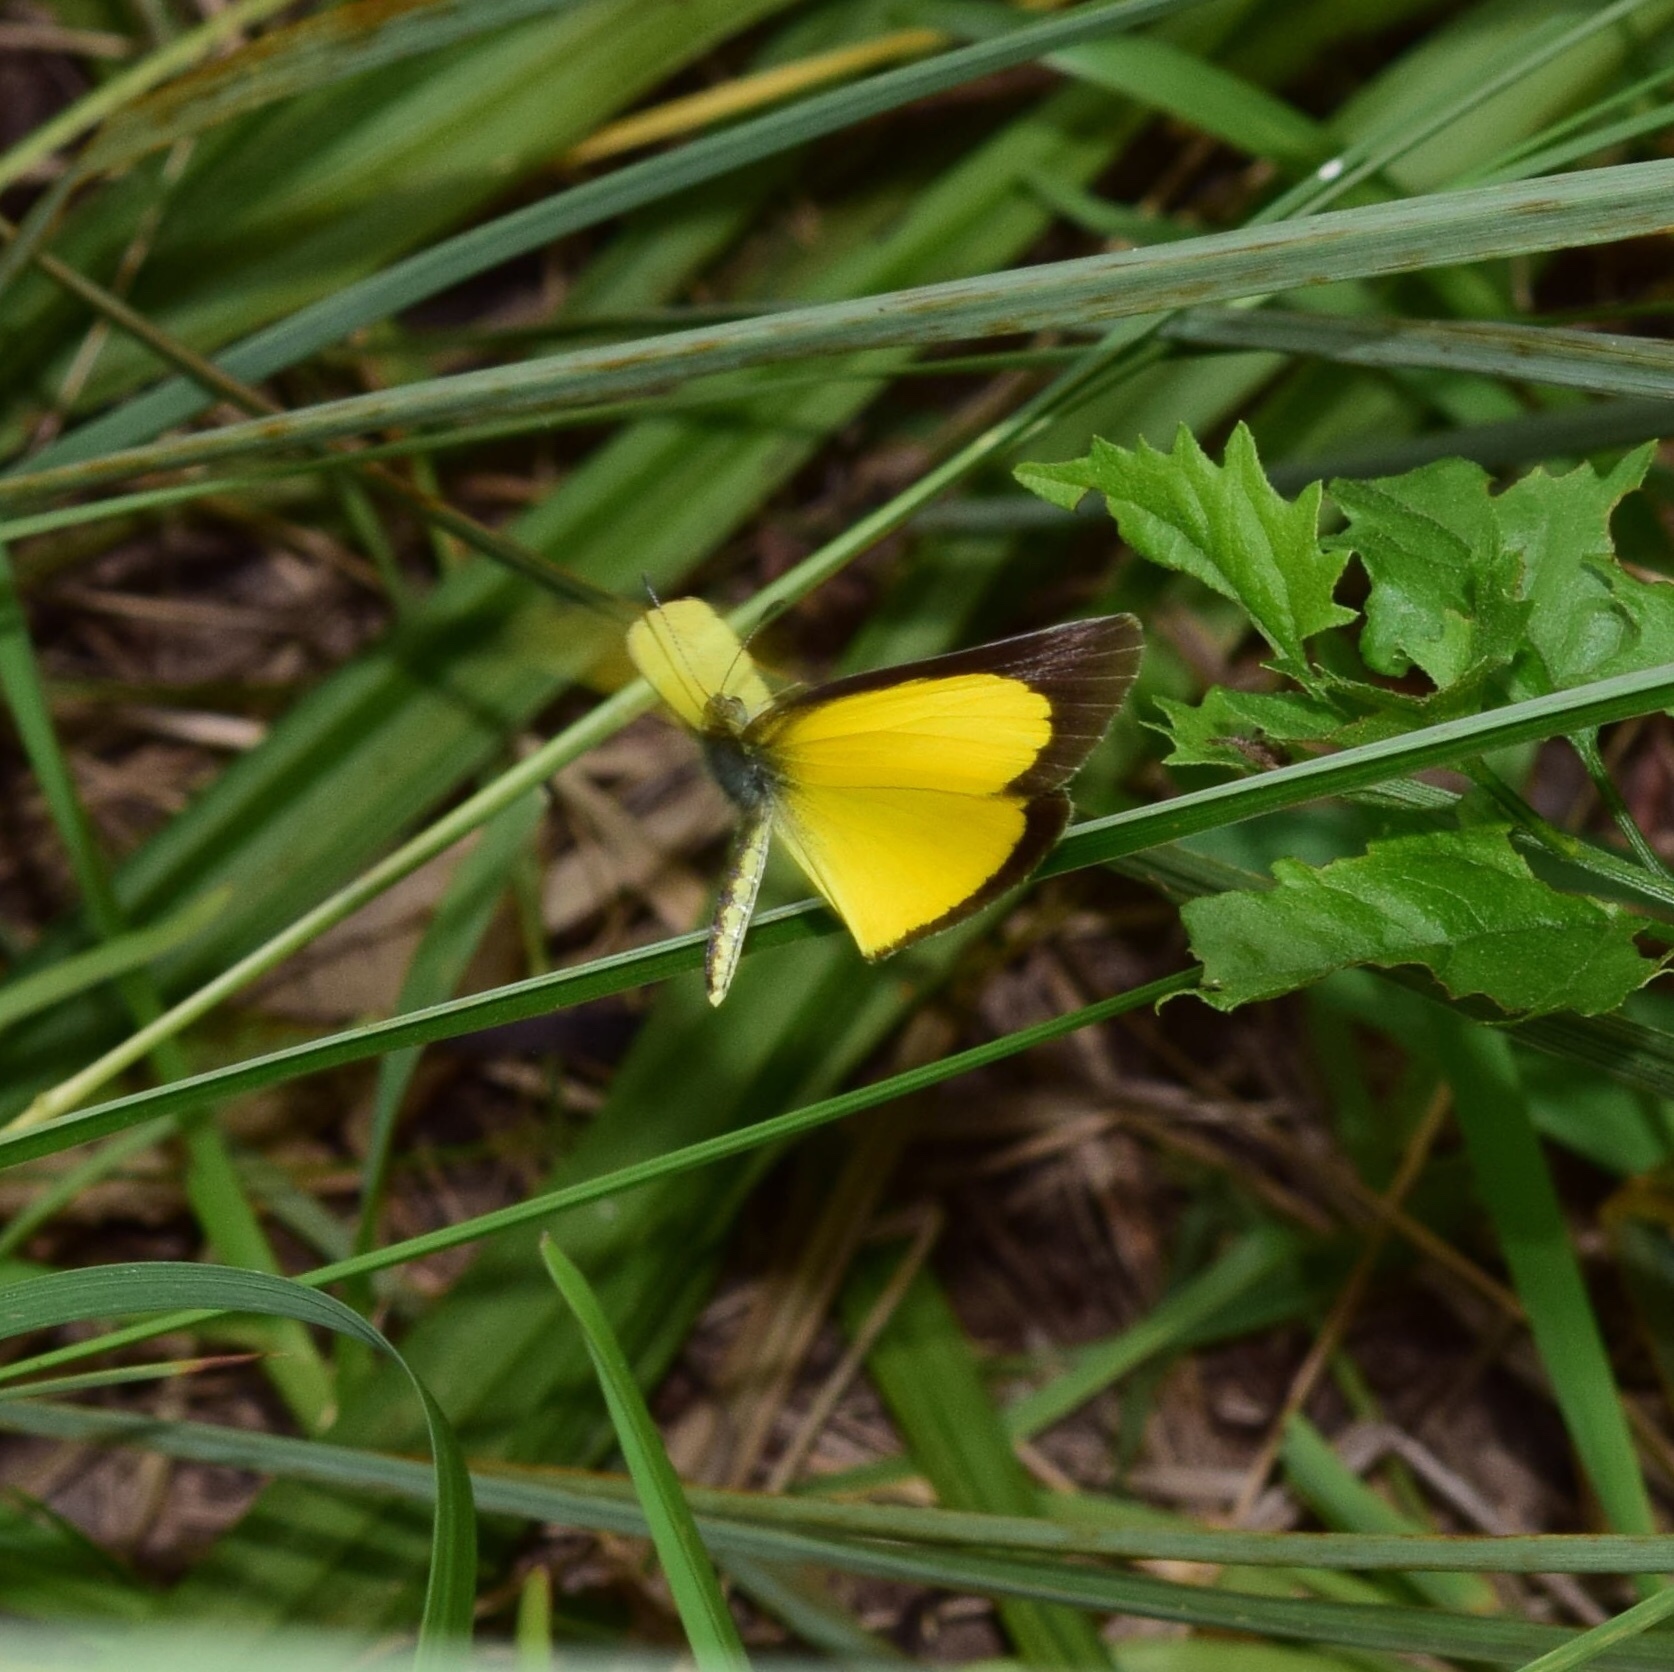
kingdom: Animalia
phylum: Arthropoda
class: Insecta
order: Lepidoptera
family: Pieridae
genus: Eurema
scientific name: Eurema brigitta
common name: Small grass yellow
